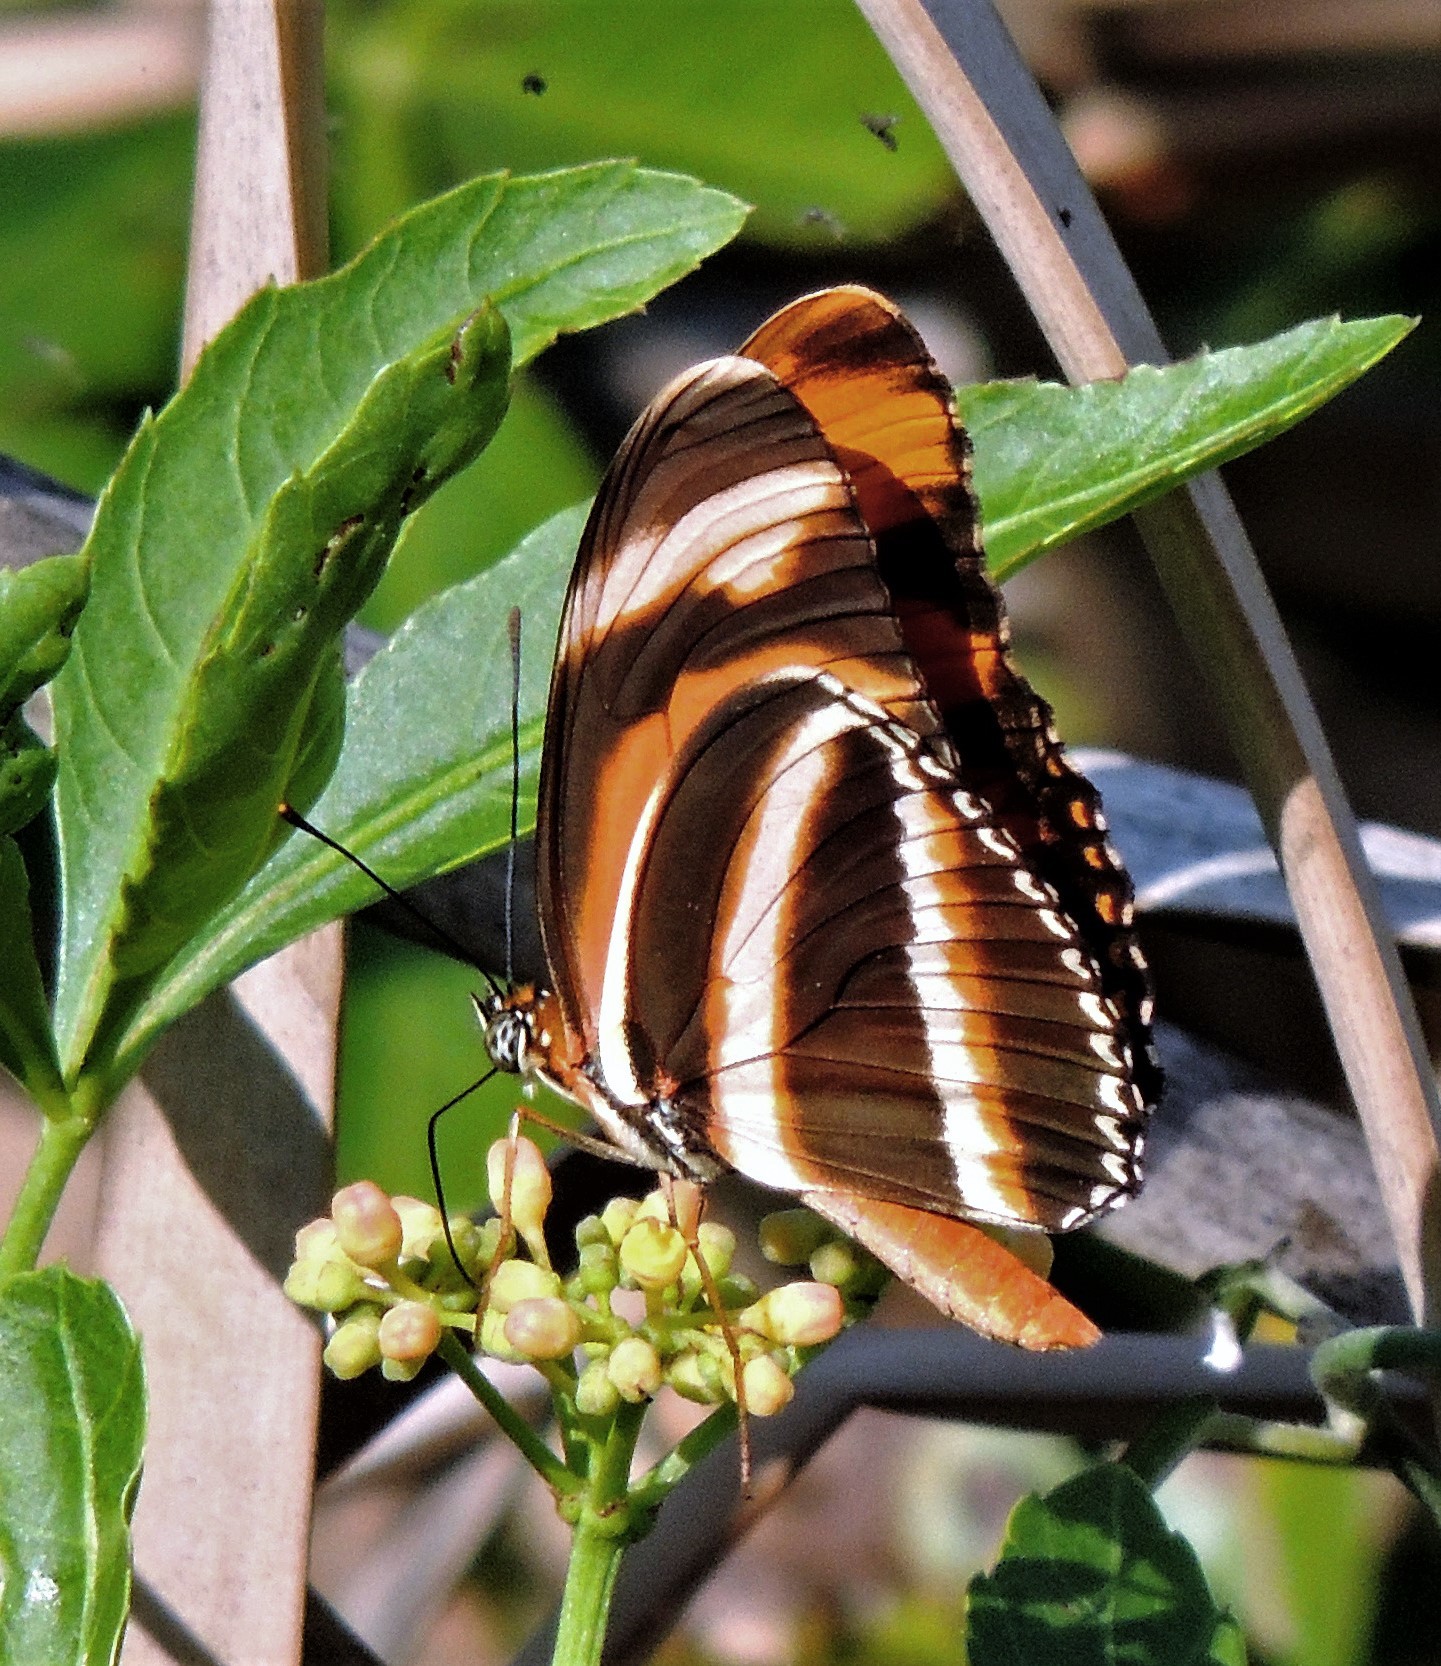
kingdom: Animalia
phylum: Arthropoda
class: Insecta
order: Lepidoptera
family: Nymphalidae
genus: Dryadula
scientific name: Dryadula phaetusa
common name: Banded orange heliconian
